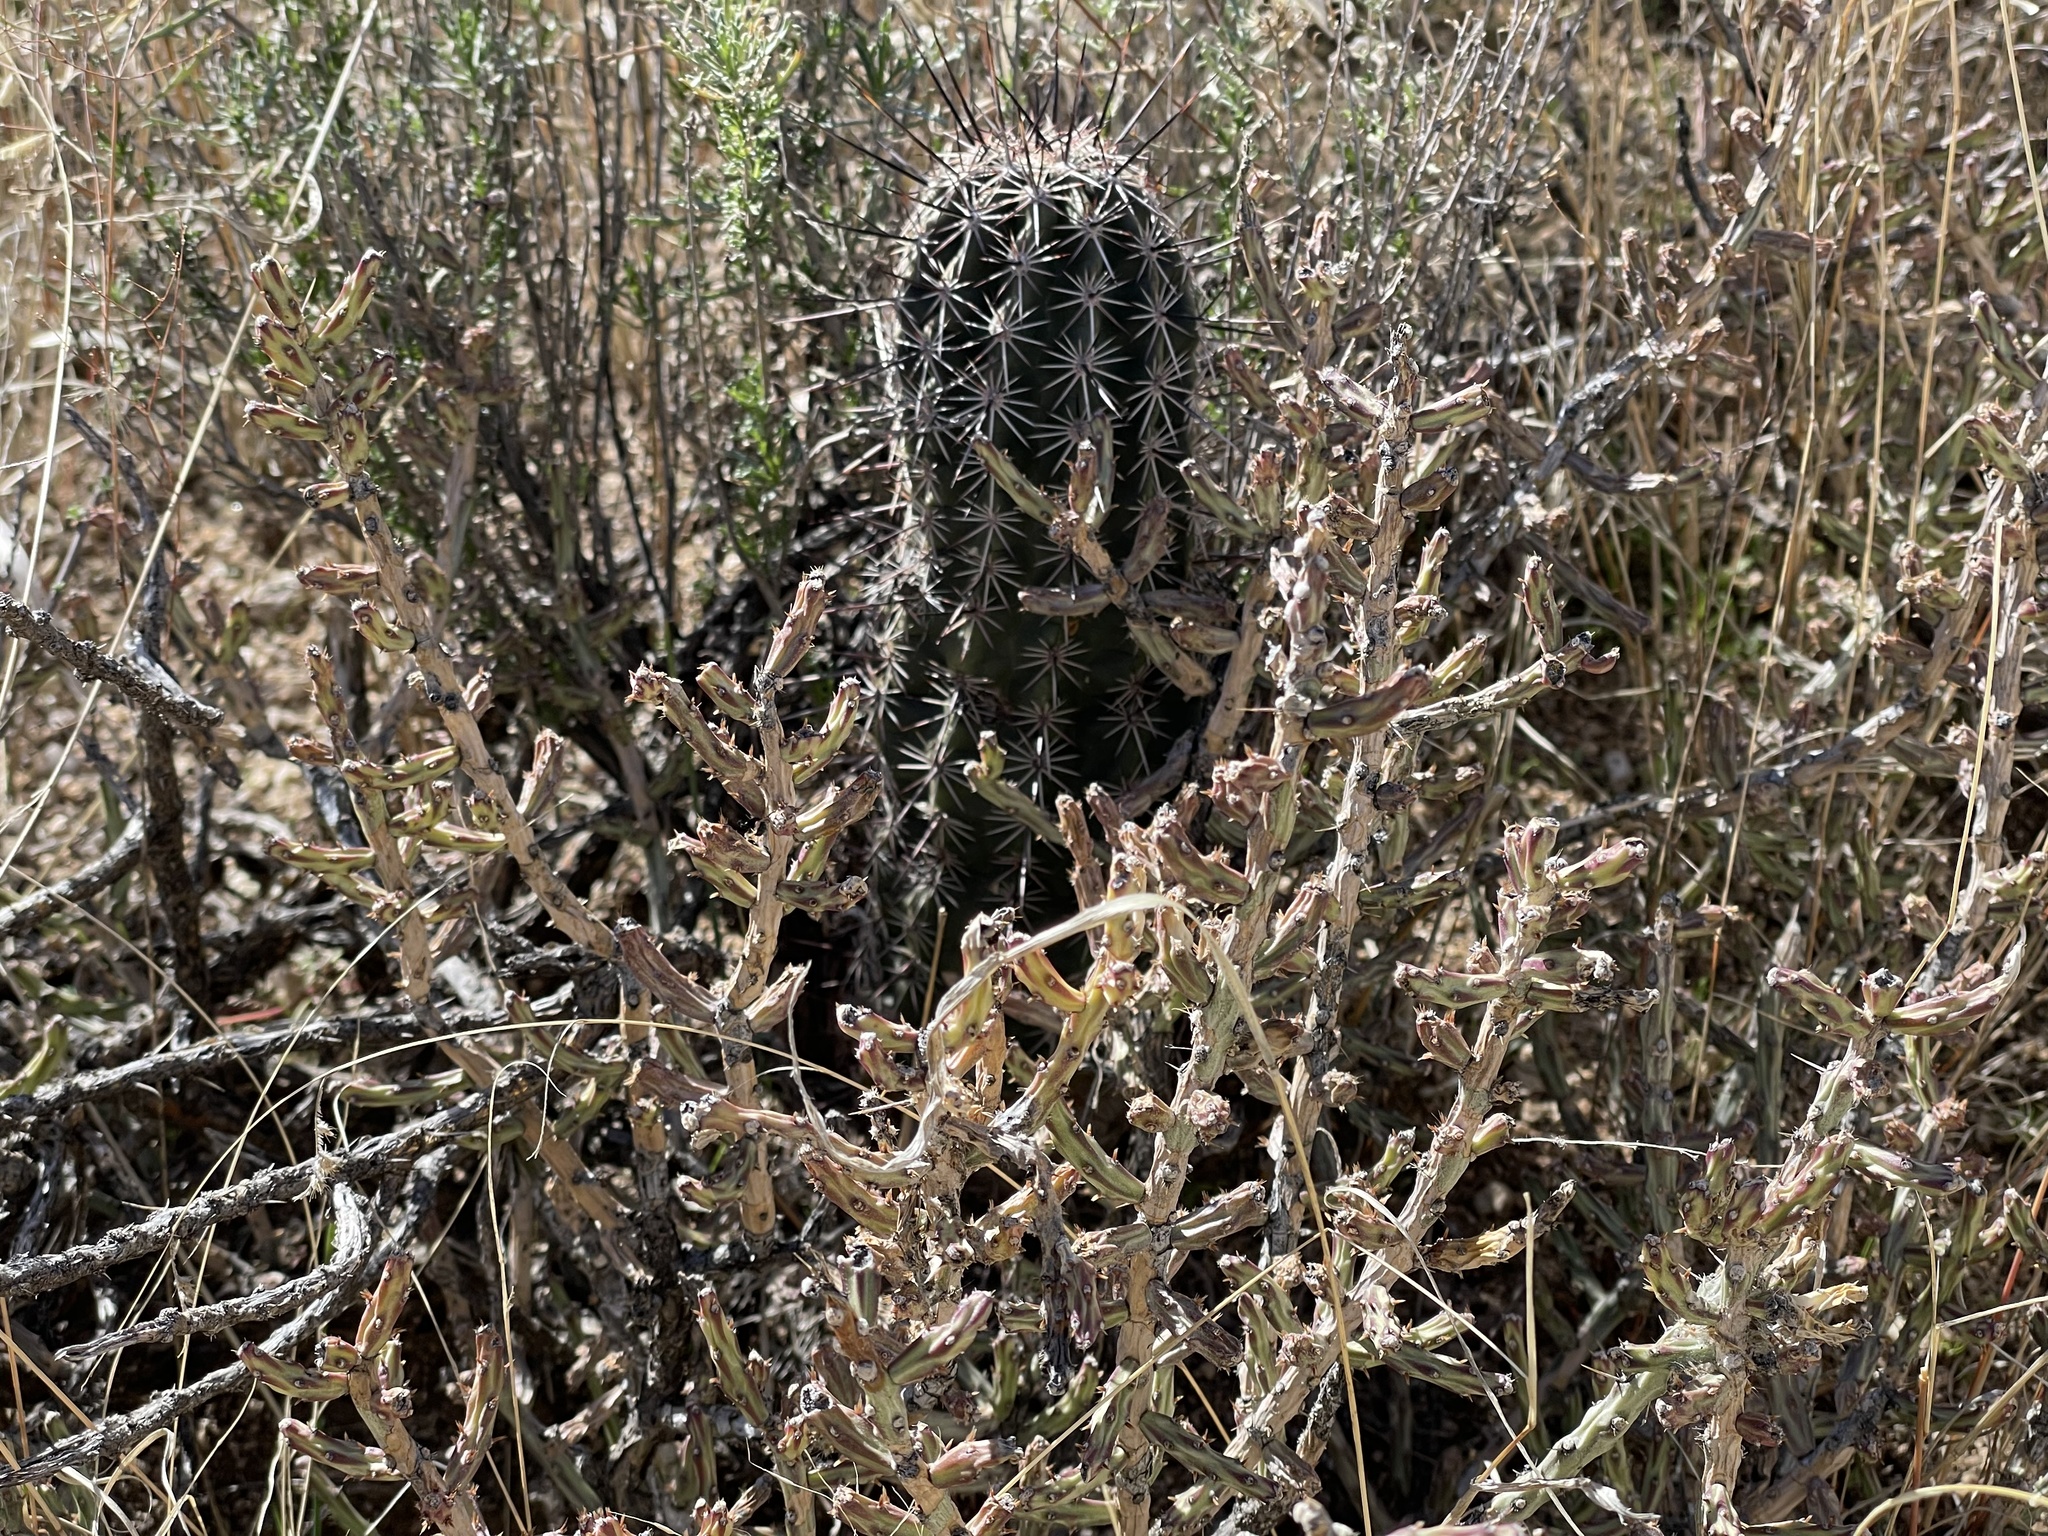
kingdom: Plantae
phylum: Tracheophyta
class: Magnoliopsida
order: Caryophyllales
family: Cactaceae
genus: Echinocereus
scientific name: Echinocereus fasciculatus
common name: Bundle hedgehog
